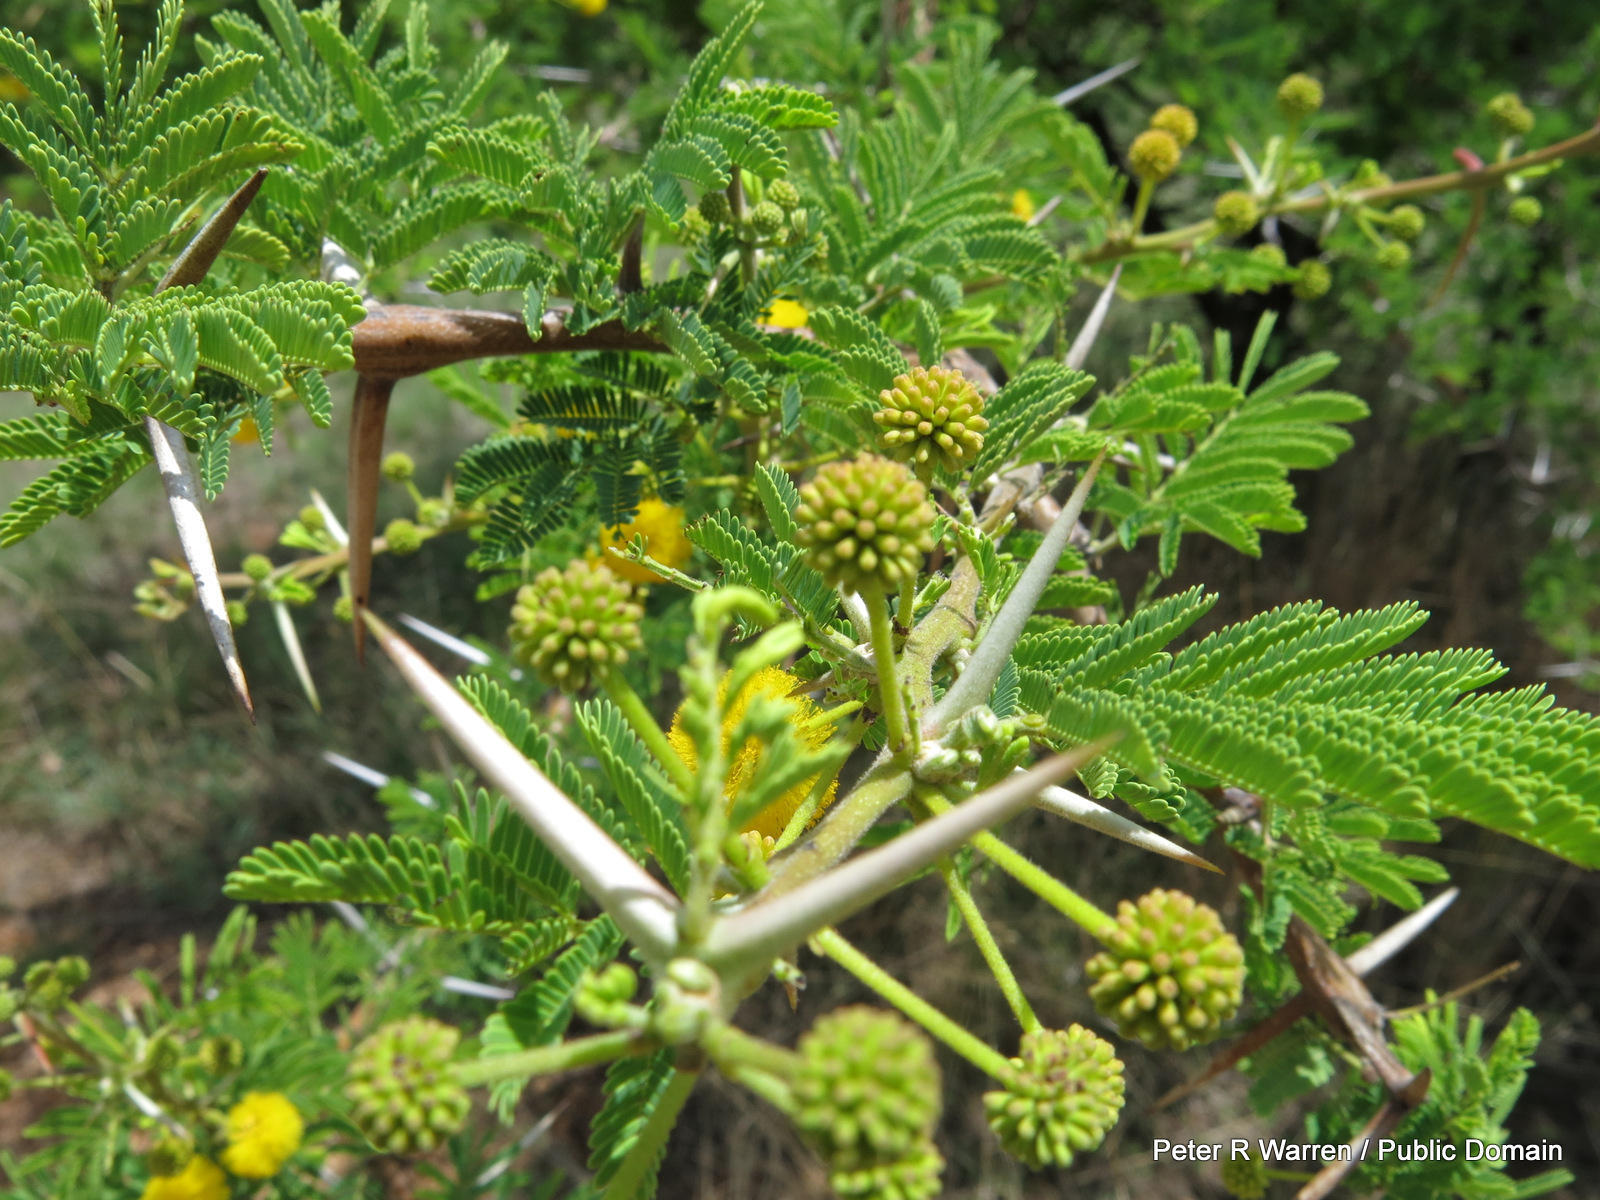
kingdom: Plantae
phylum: Tracheophyta
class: Magnoliopsida
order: Fabales
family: Fabaceae
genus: Vachellia
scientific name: Vachellia karroo
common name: Sweet thorn
